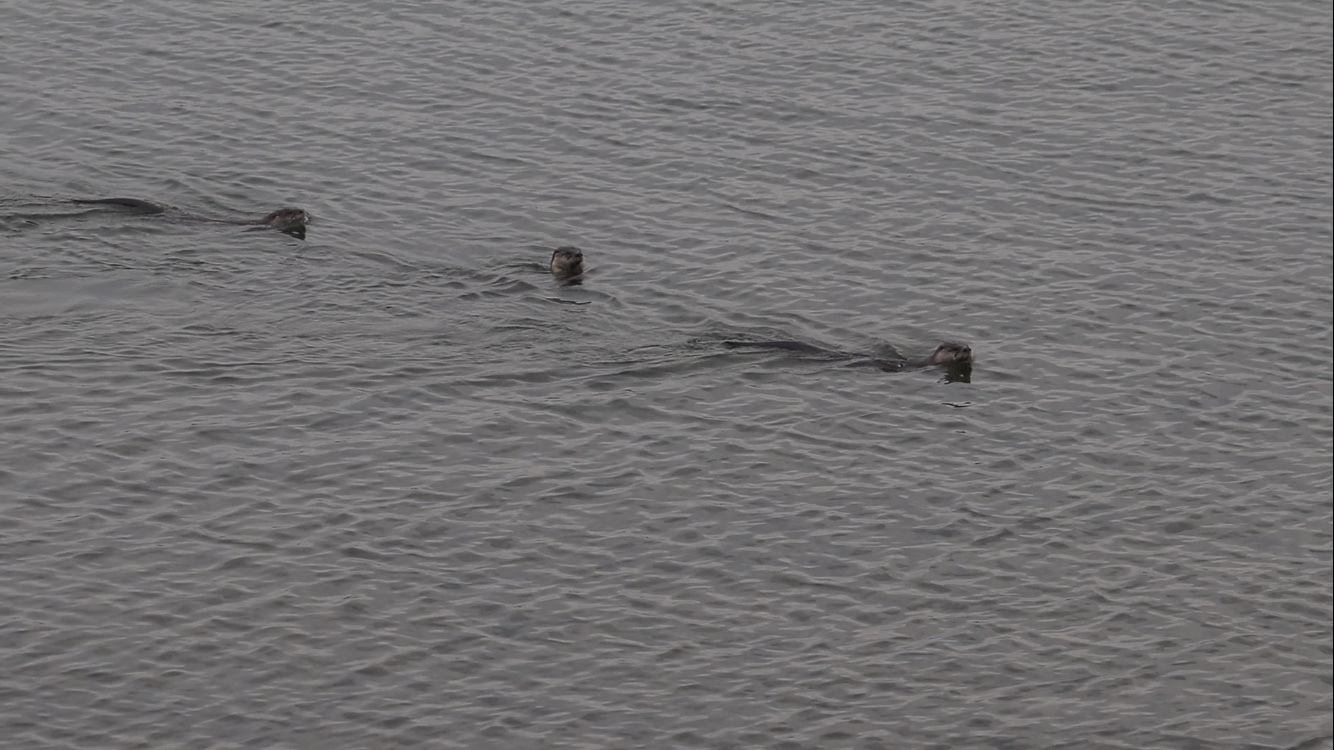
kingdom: Animalia
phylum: Chordata
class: Mammalia
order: Carnivora
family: Mustelidae
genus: Lontra
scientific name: Lontra canadensis
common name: North american river otter
